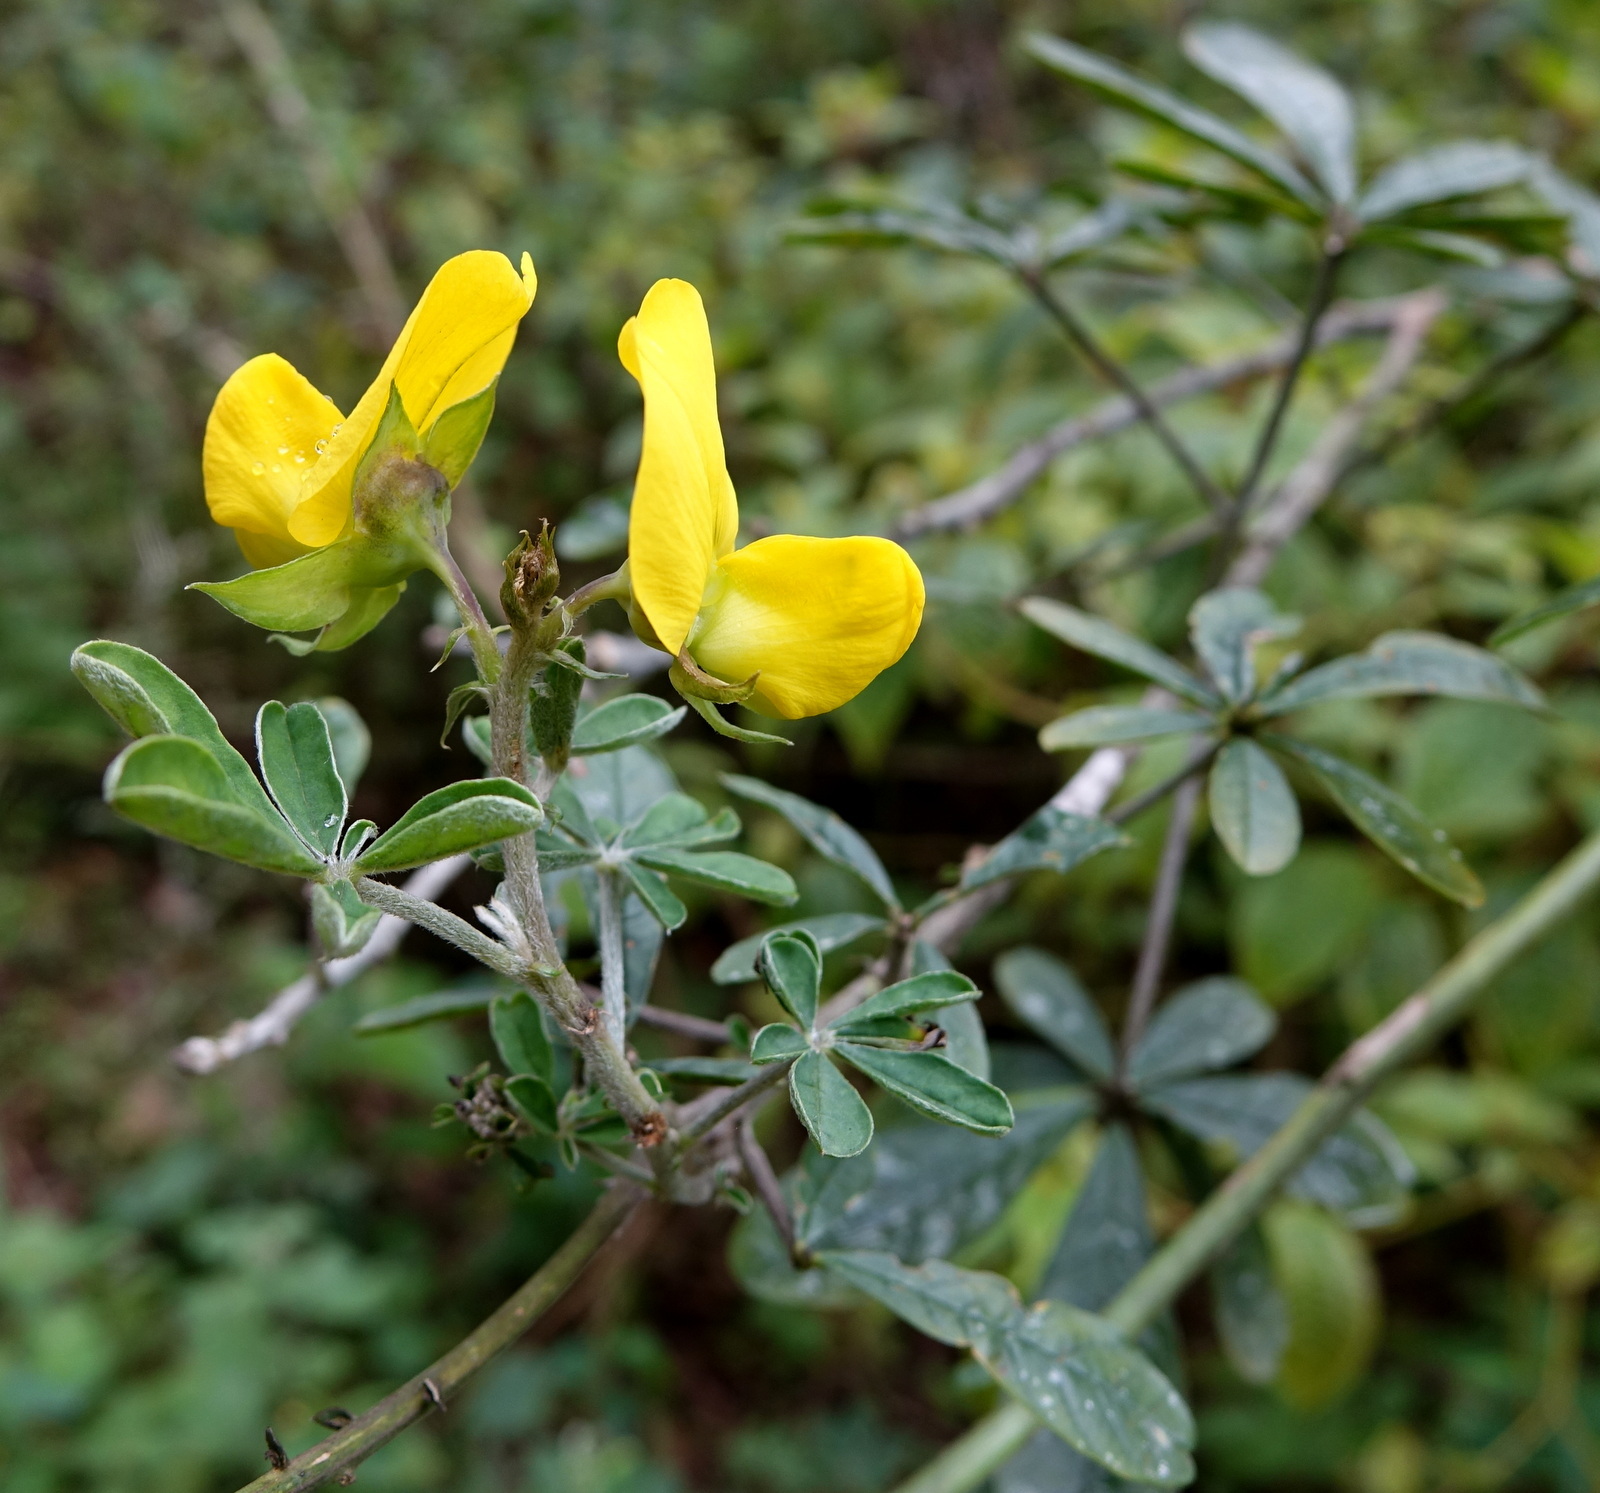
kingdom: Plantae
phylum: Tracheophyta
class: Magnoliopsida
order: Fabales
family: Fabaceae
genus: Crotalaria
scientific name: Crotalaria grahamiana
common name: Bushy rattlepod
